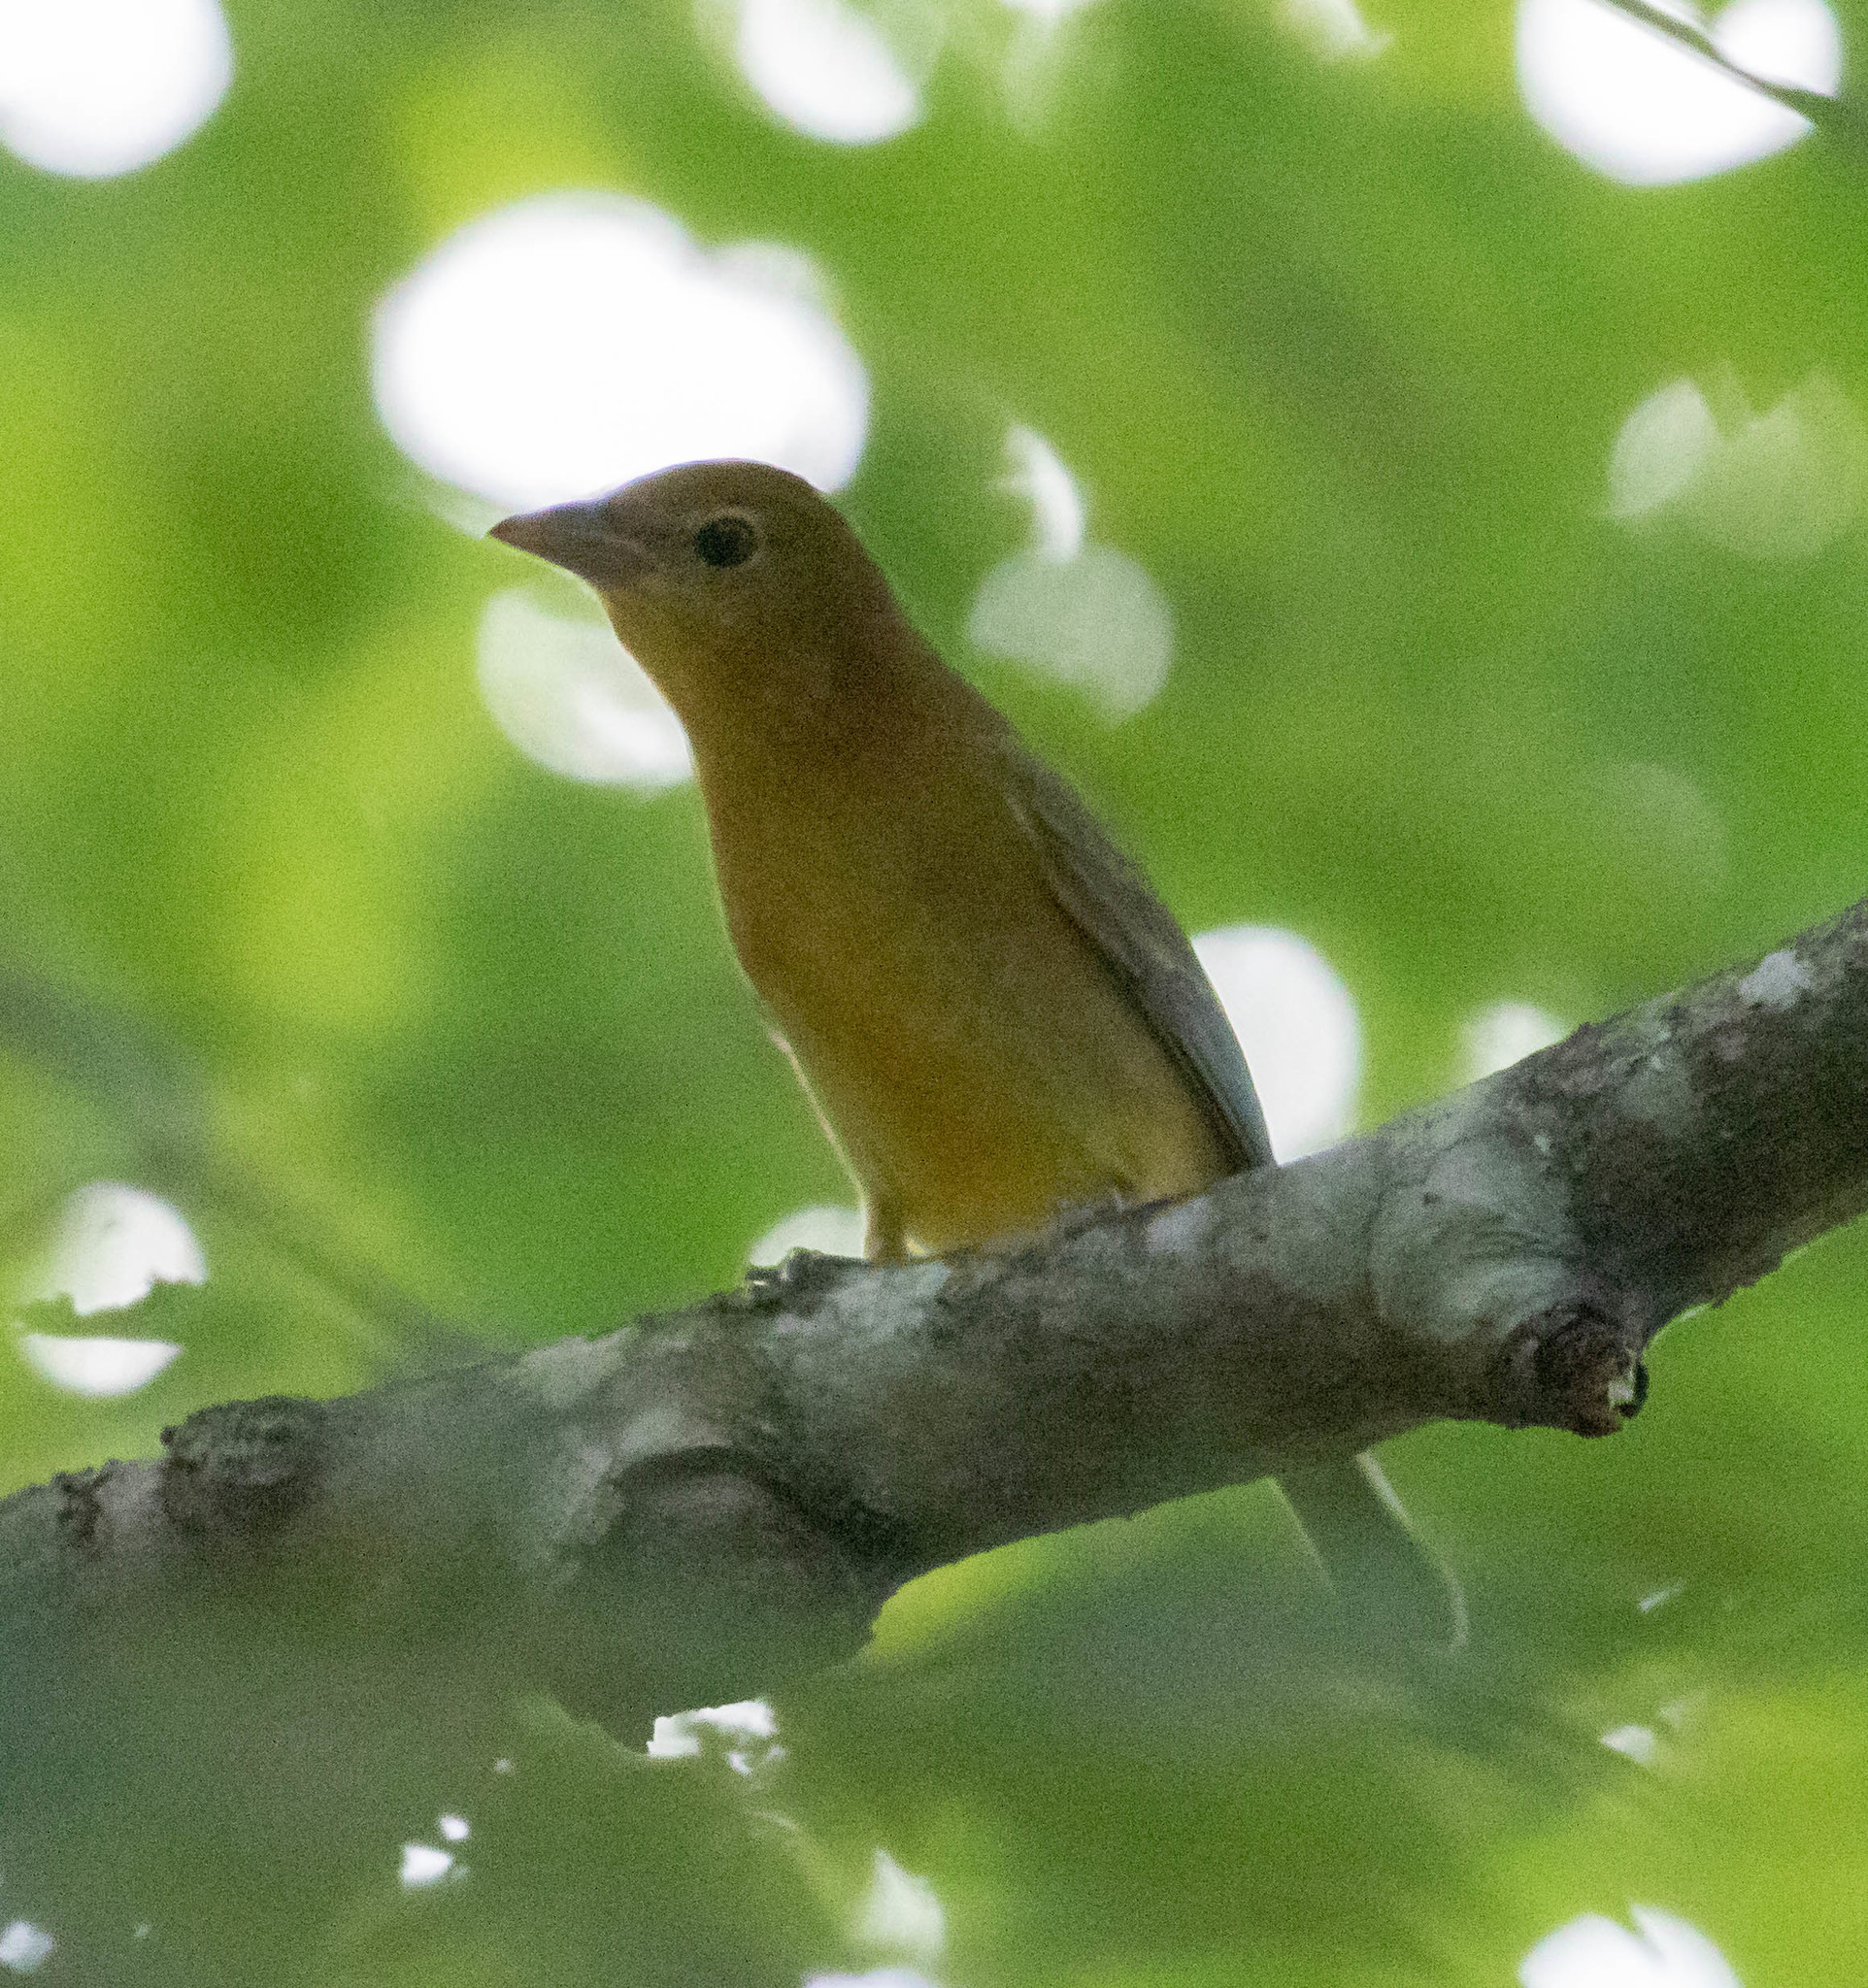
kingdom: Animalia
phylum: Chordata
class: Aves
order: Passeriformes
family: Cardinalidae
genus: Piranga
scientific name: Piranga rubra
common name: Summer tanager
